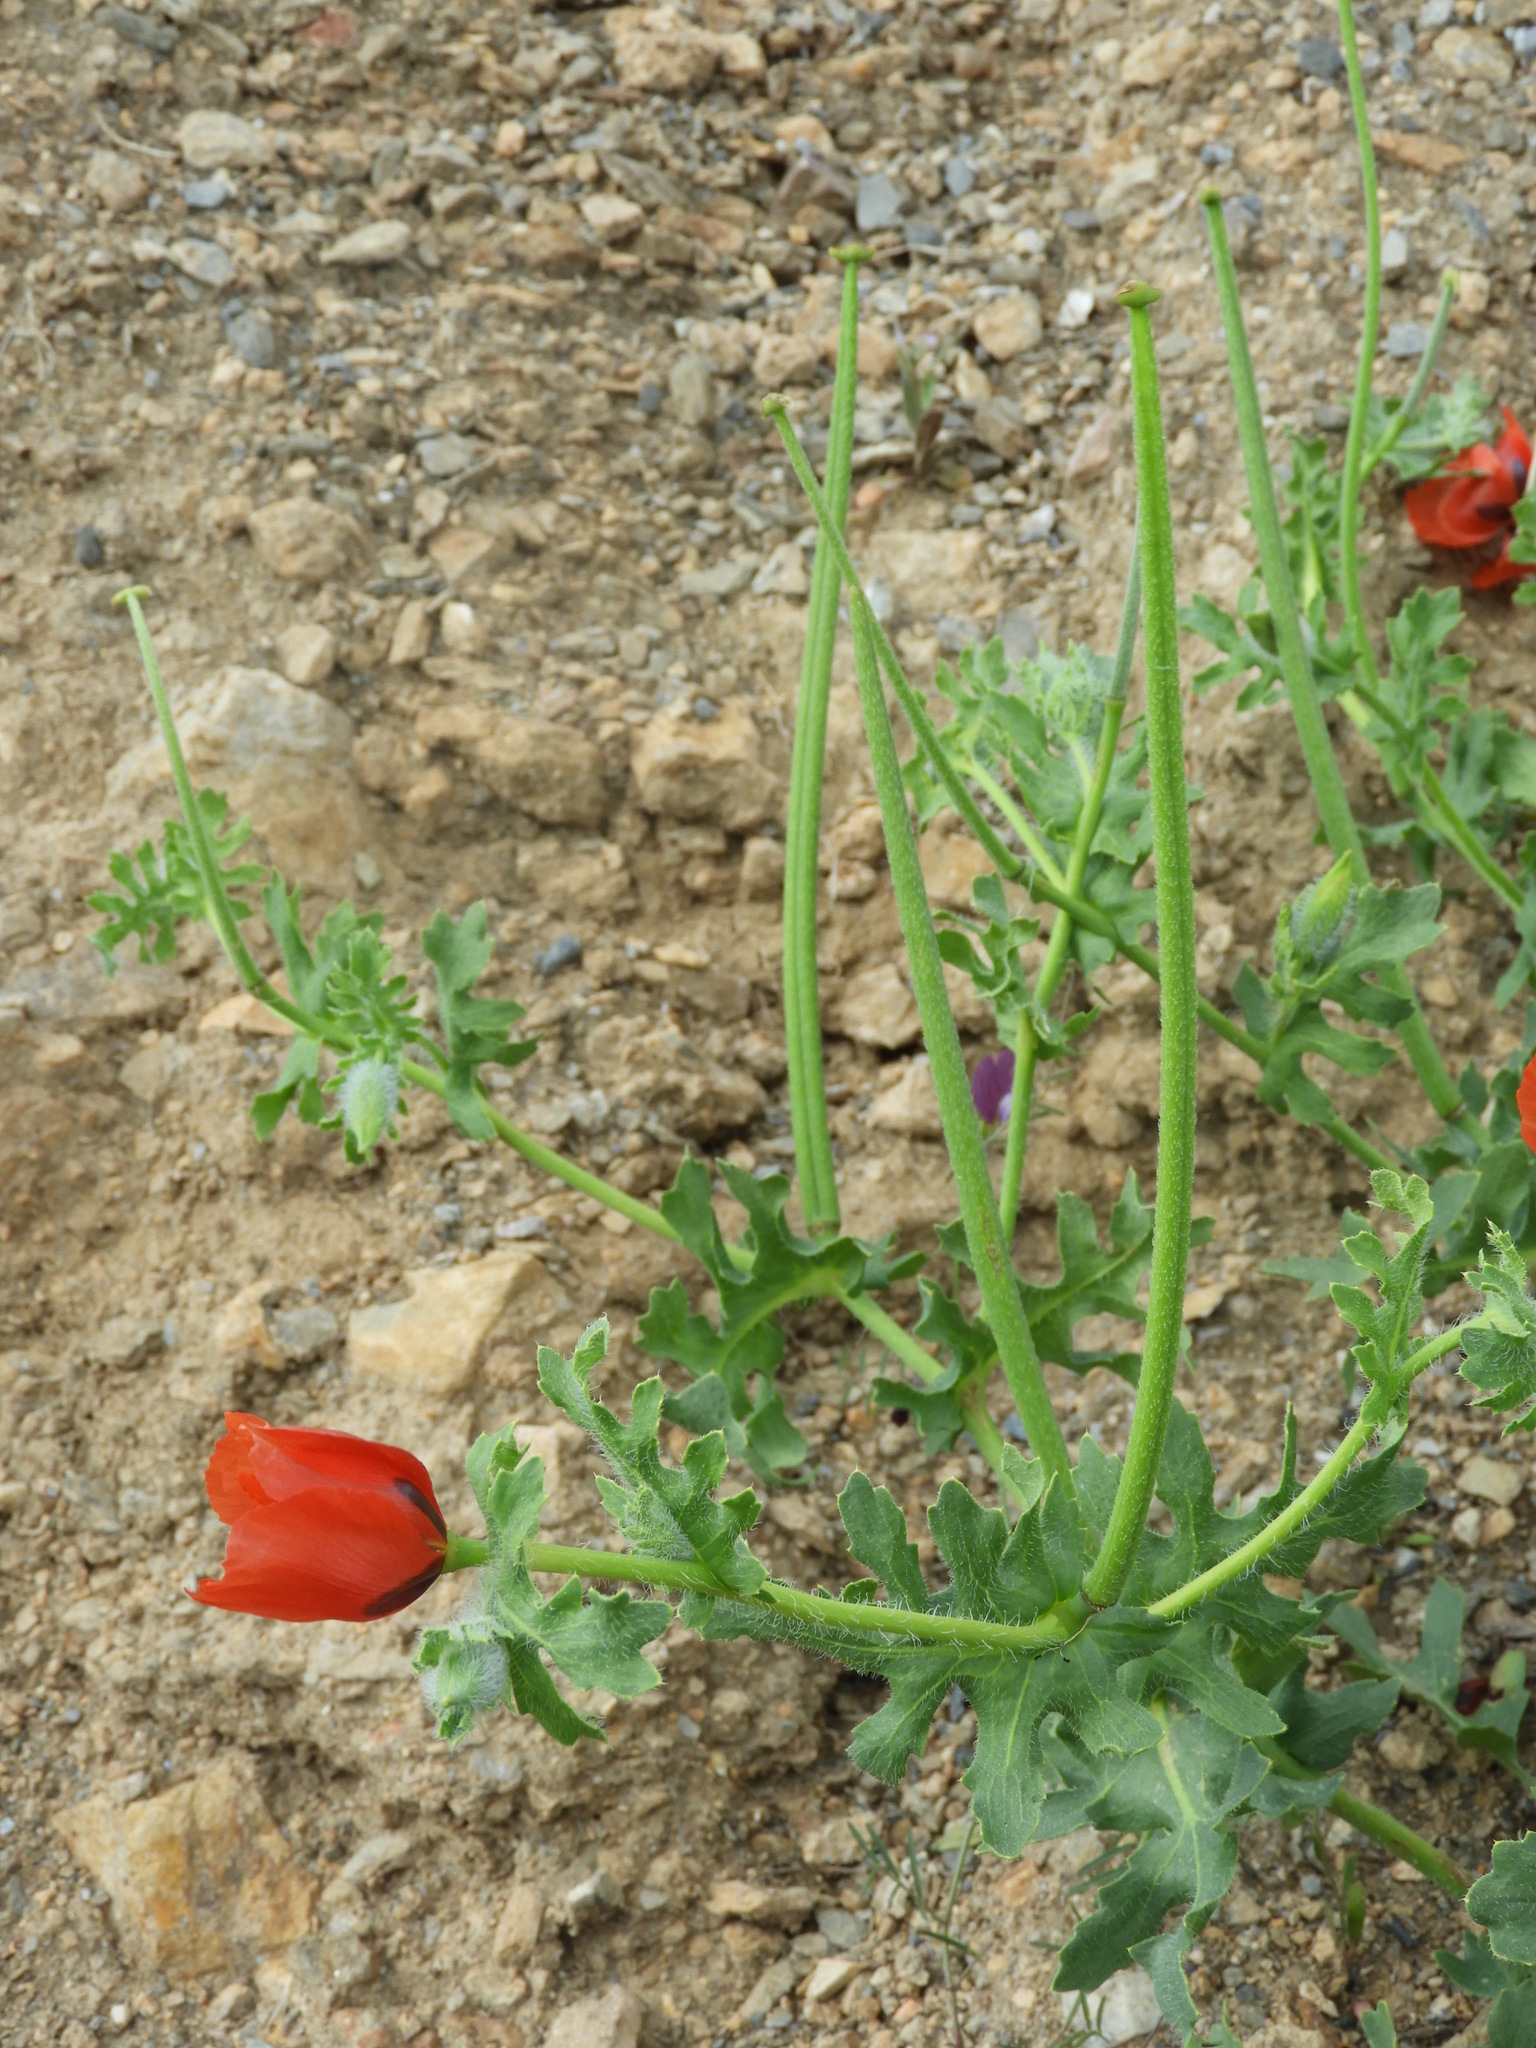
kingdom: Plantae
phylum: Tracheophyta
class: Magnoliopsida
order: Ranunculales
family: Papaveraceae
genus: Glaucium
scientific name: Glaucium corniculatum
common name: Red horned-poppy
